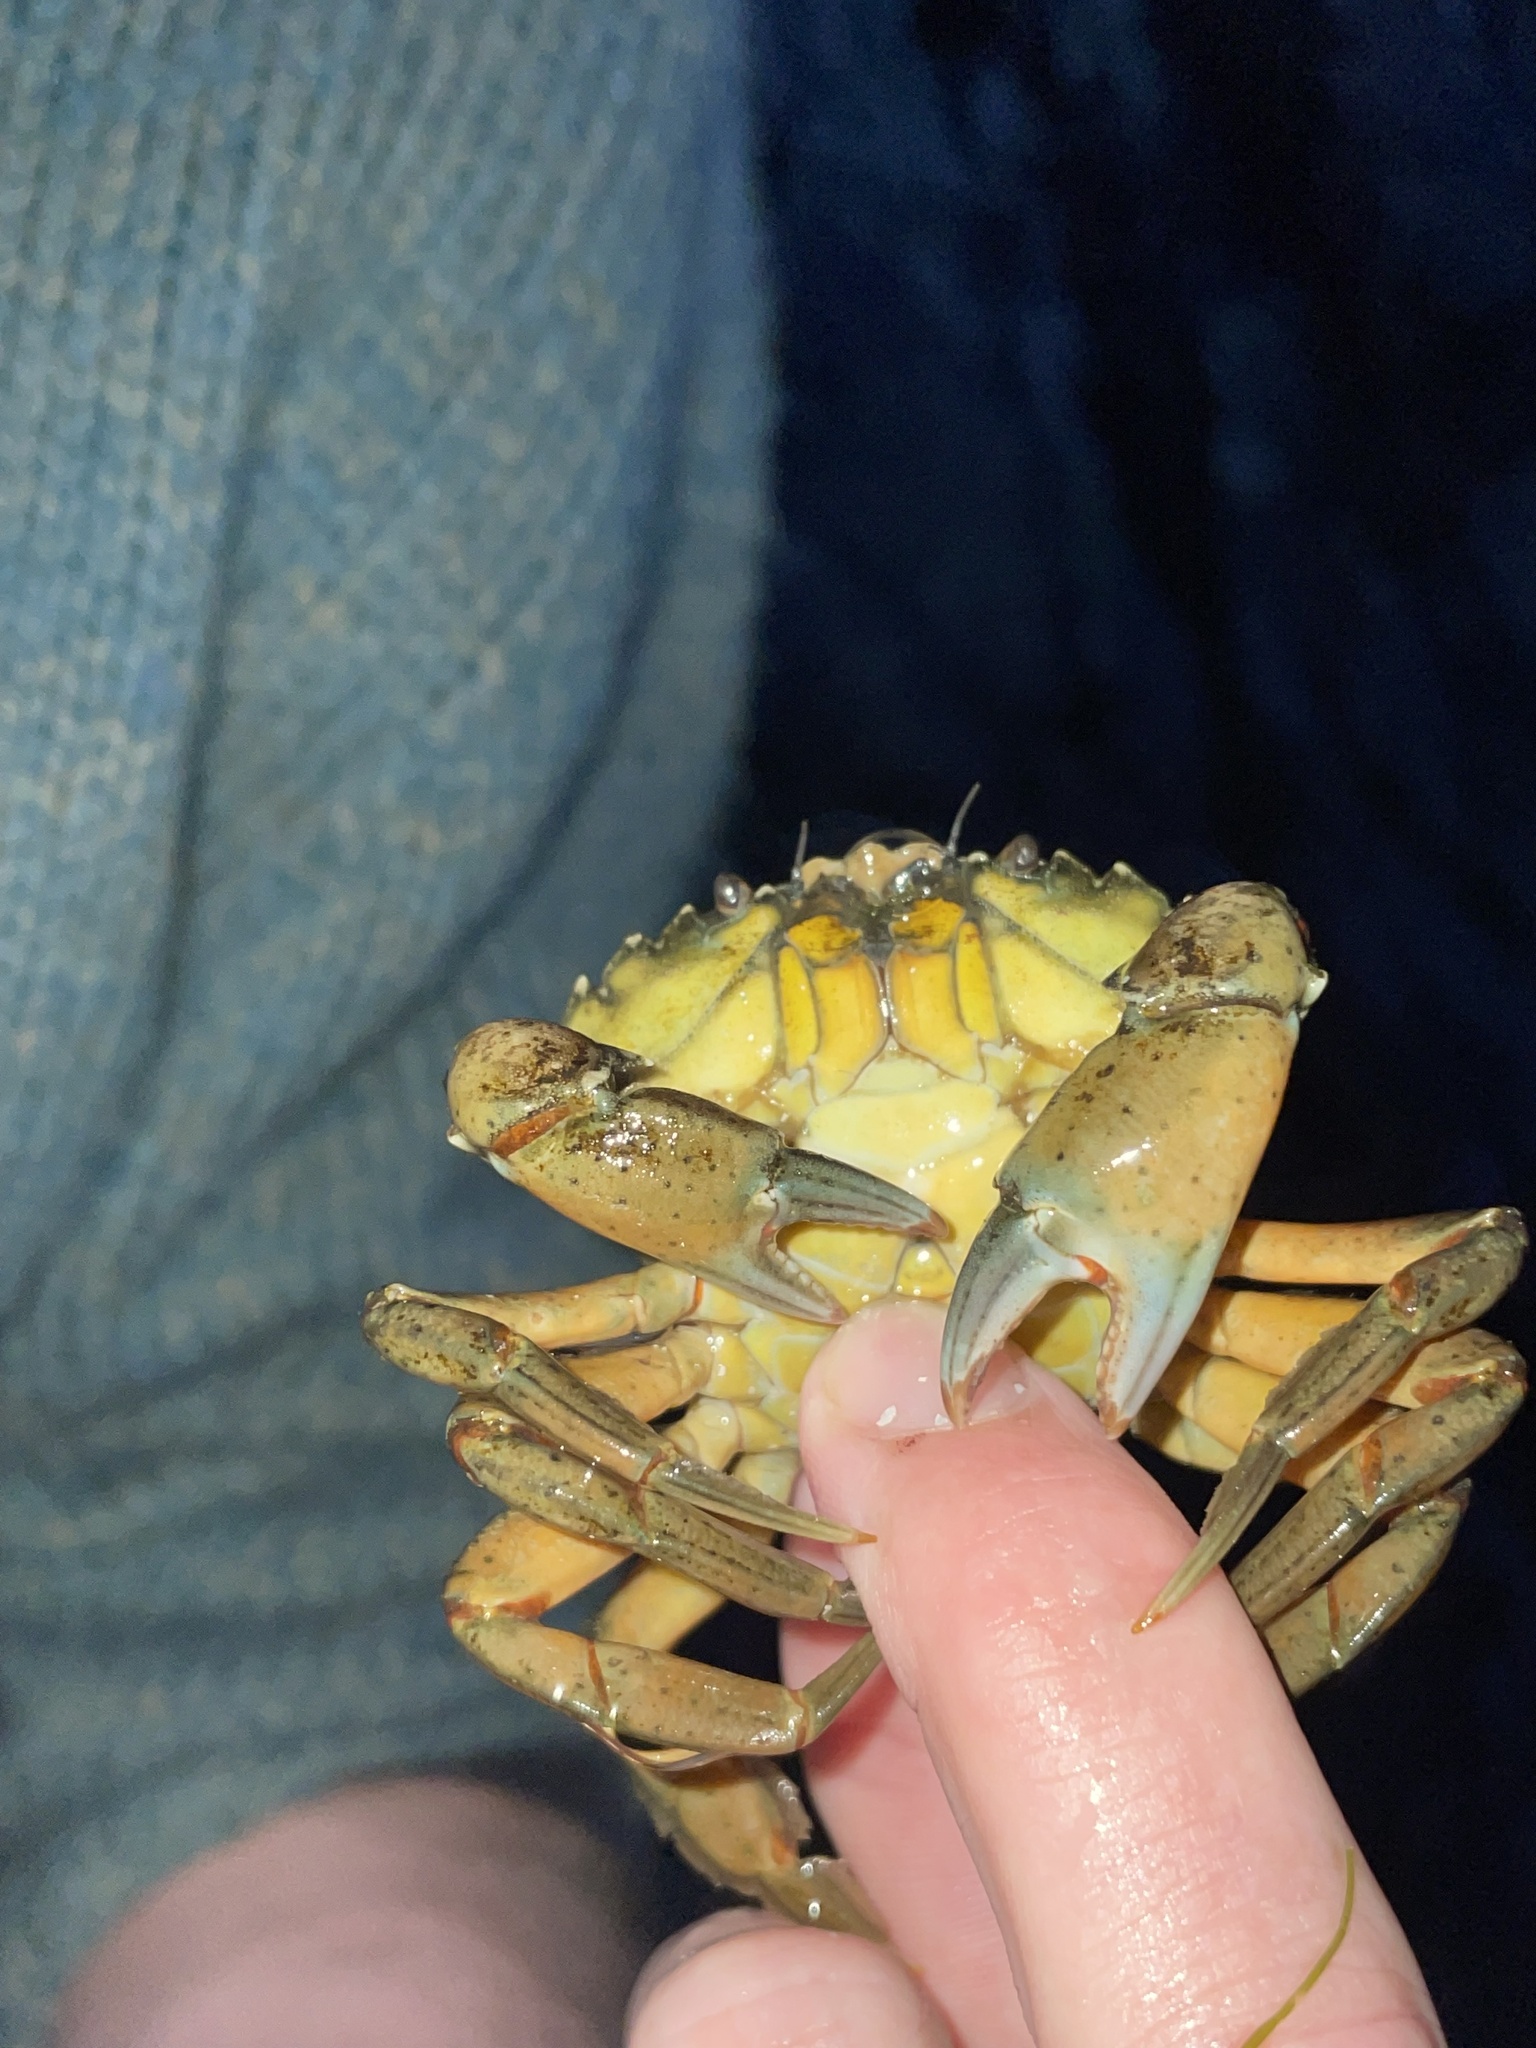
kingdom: Animalia
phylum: Arthropoda
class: Malacostraca
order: Decapoda
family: Carcinidae
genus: Carcinus
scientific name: Carcinus maenas
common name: European green crab
